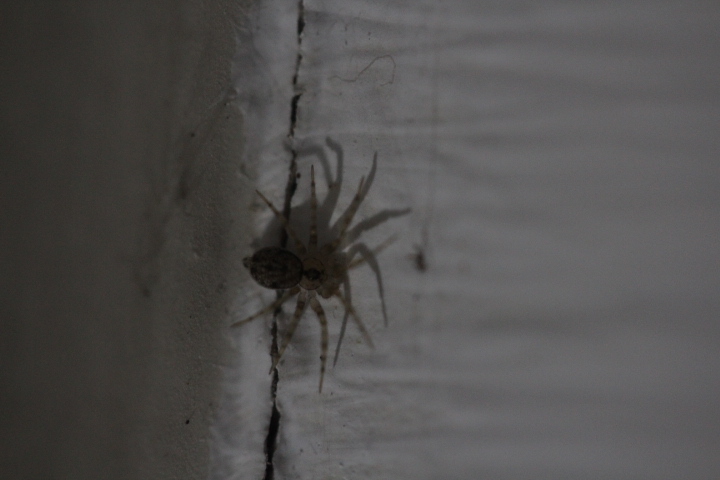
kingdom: Animalia
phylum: Arthropoda
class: Arachnida
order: Araneae
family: Oecobiidae
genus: Oecobius
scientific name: Oecobius navus
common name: Flatmesh weaver
